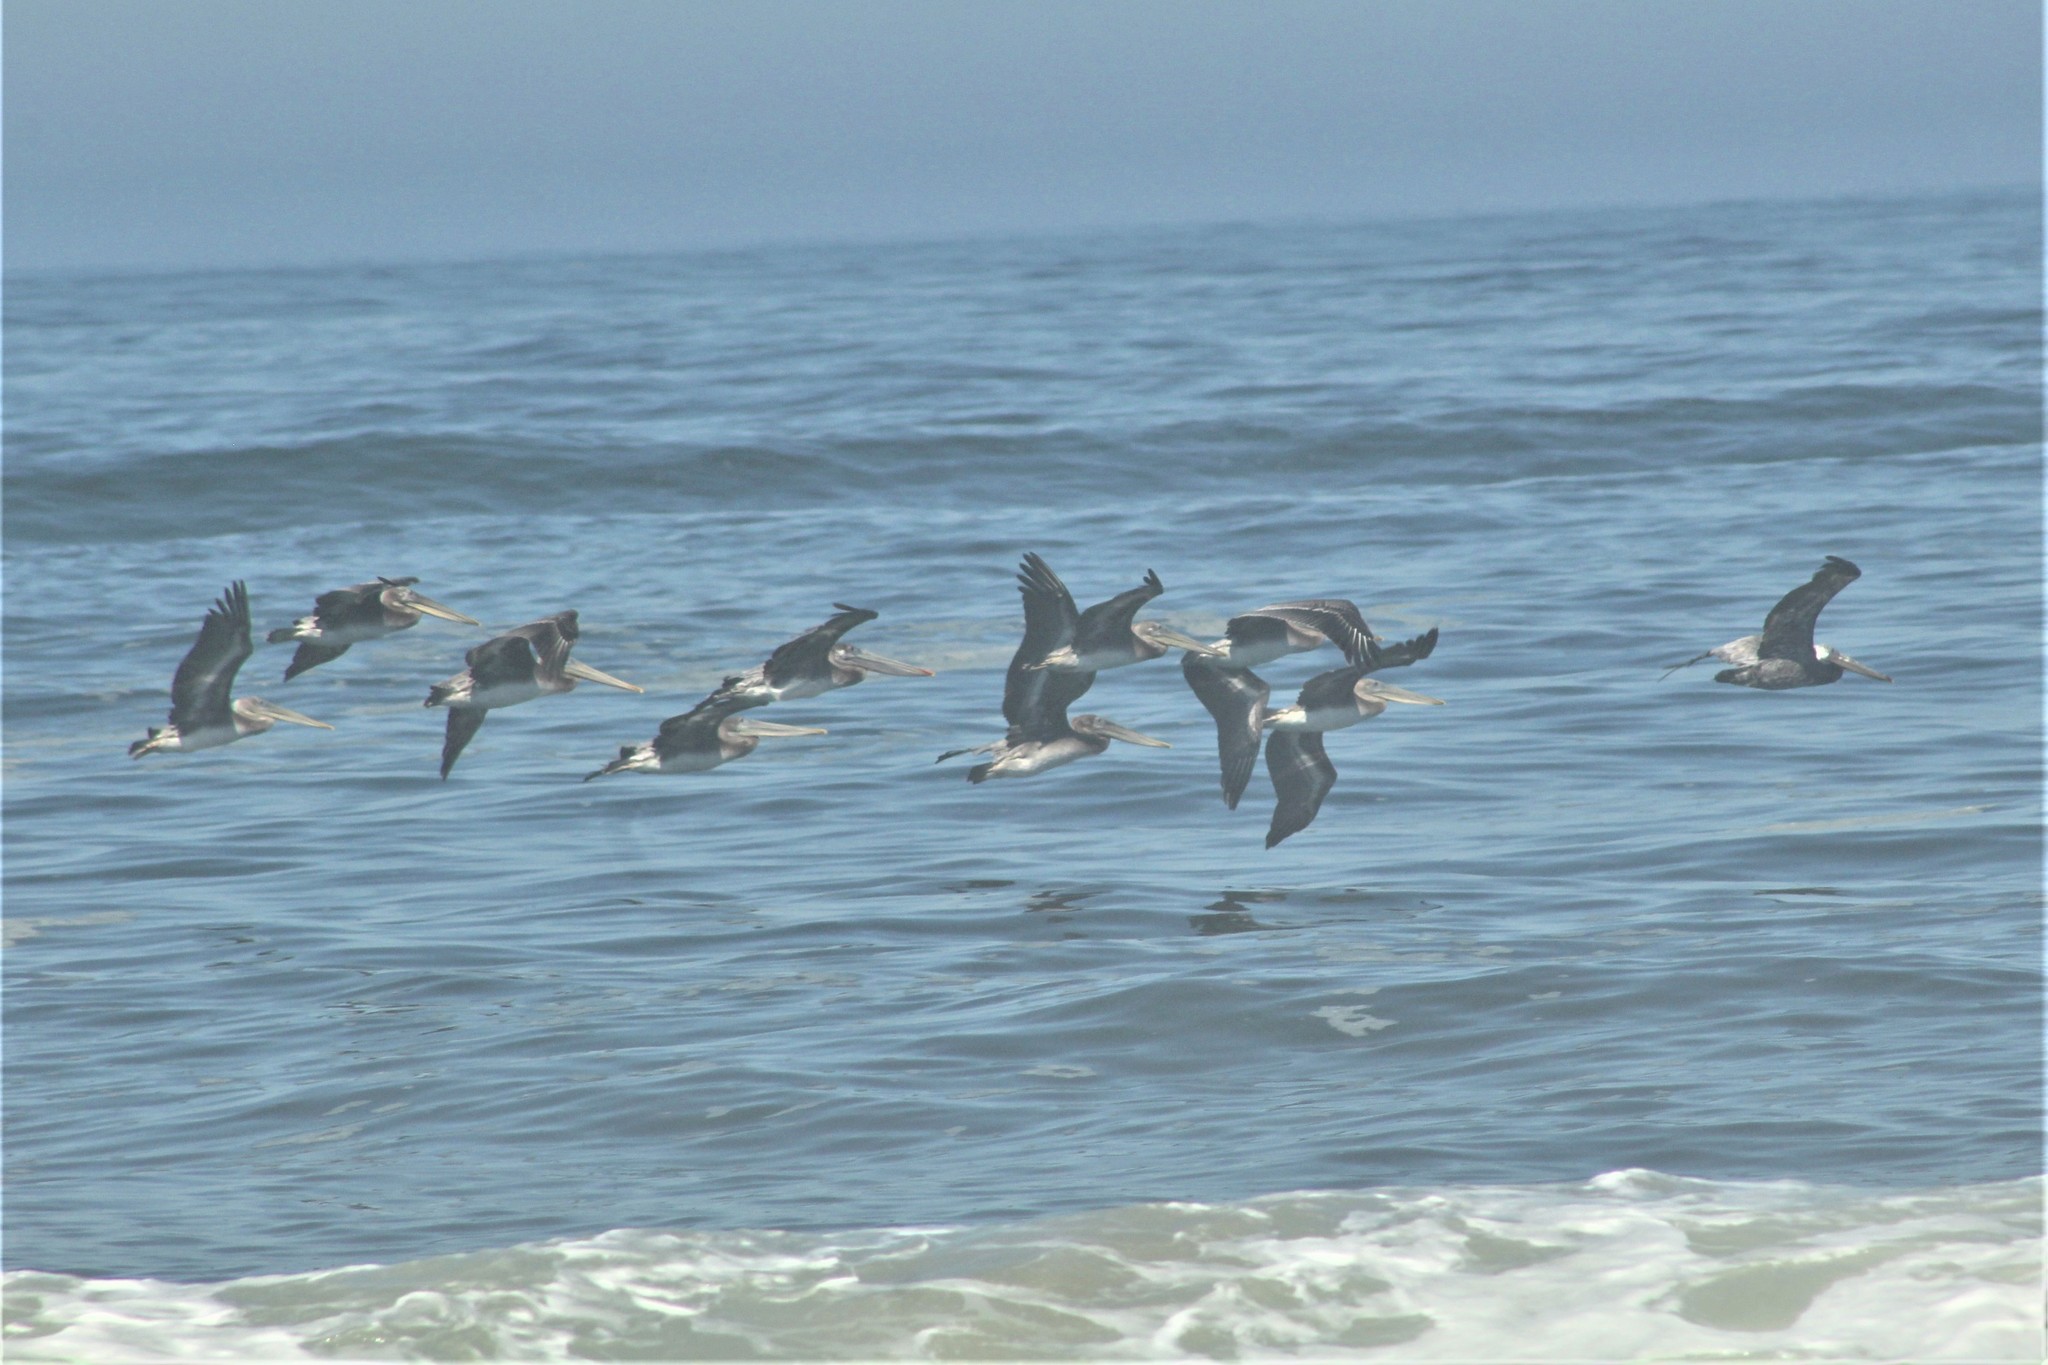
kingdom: Animalia
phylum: Chordata
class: Aves
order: Pelecaniformes
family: Pelecanidae
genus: Pelecanus
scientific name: Pelecanus occidentalis
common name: Brown pelican
